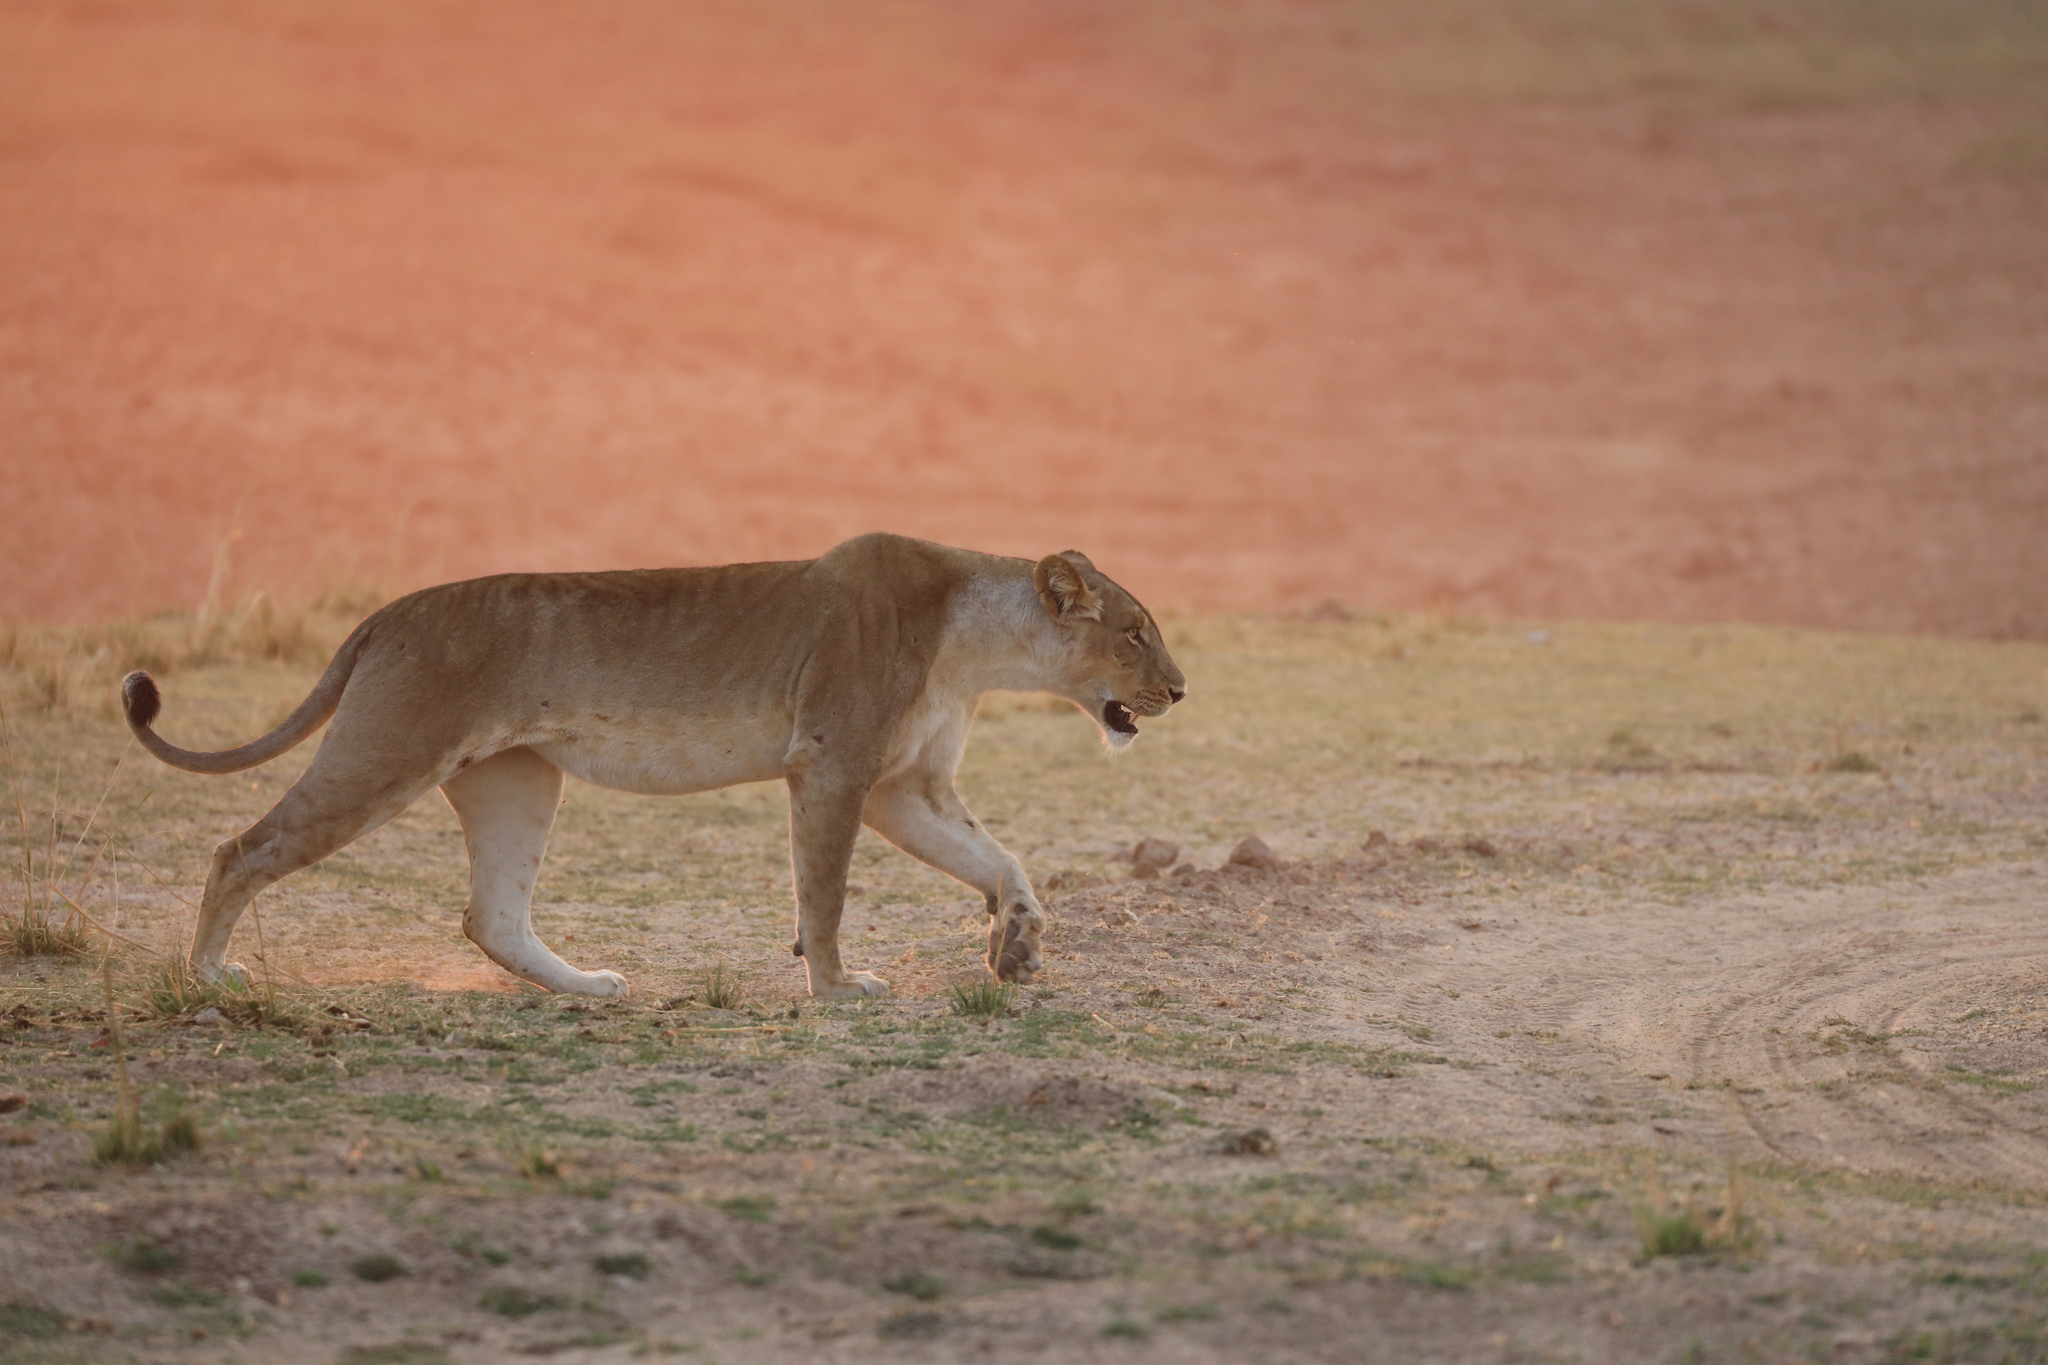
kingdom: Animalia
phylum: Chordata
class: Mammalia
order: Carnivora
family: Felidae
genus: Panthera
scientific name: Panthera leo
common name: Lion
